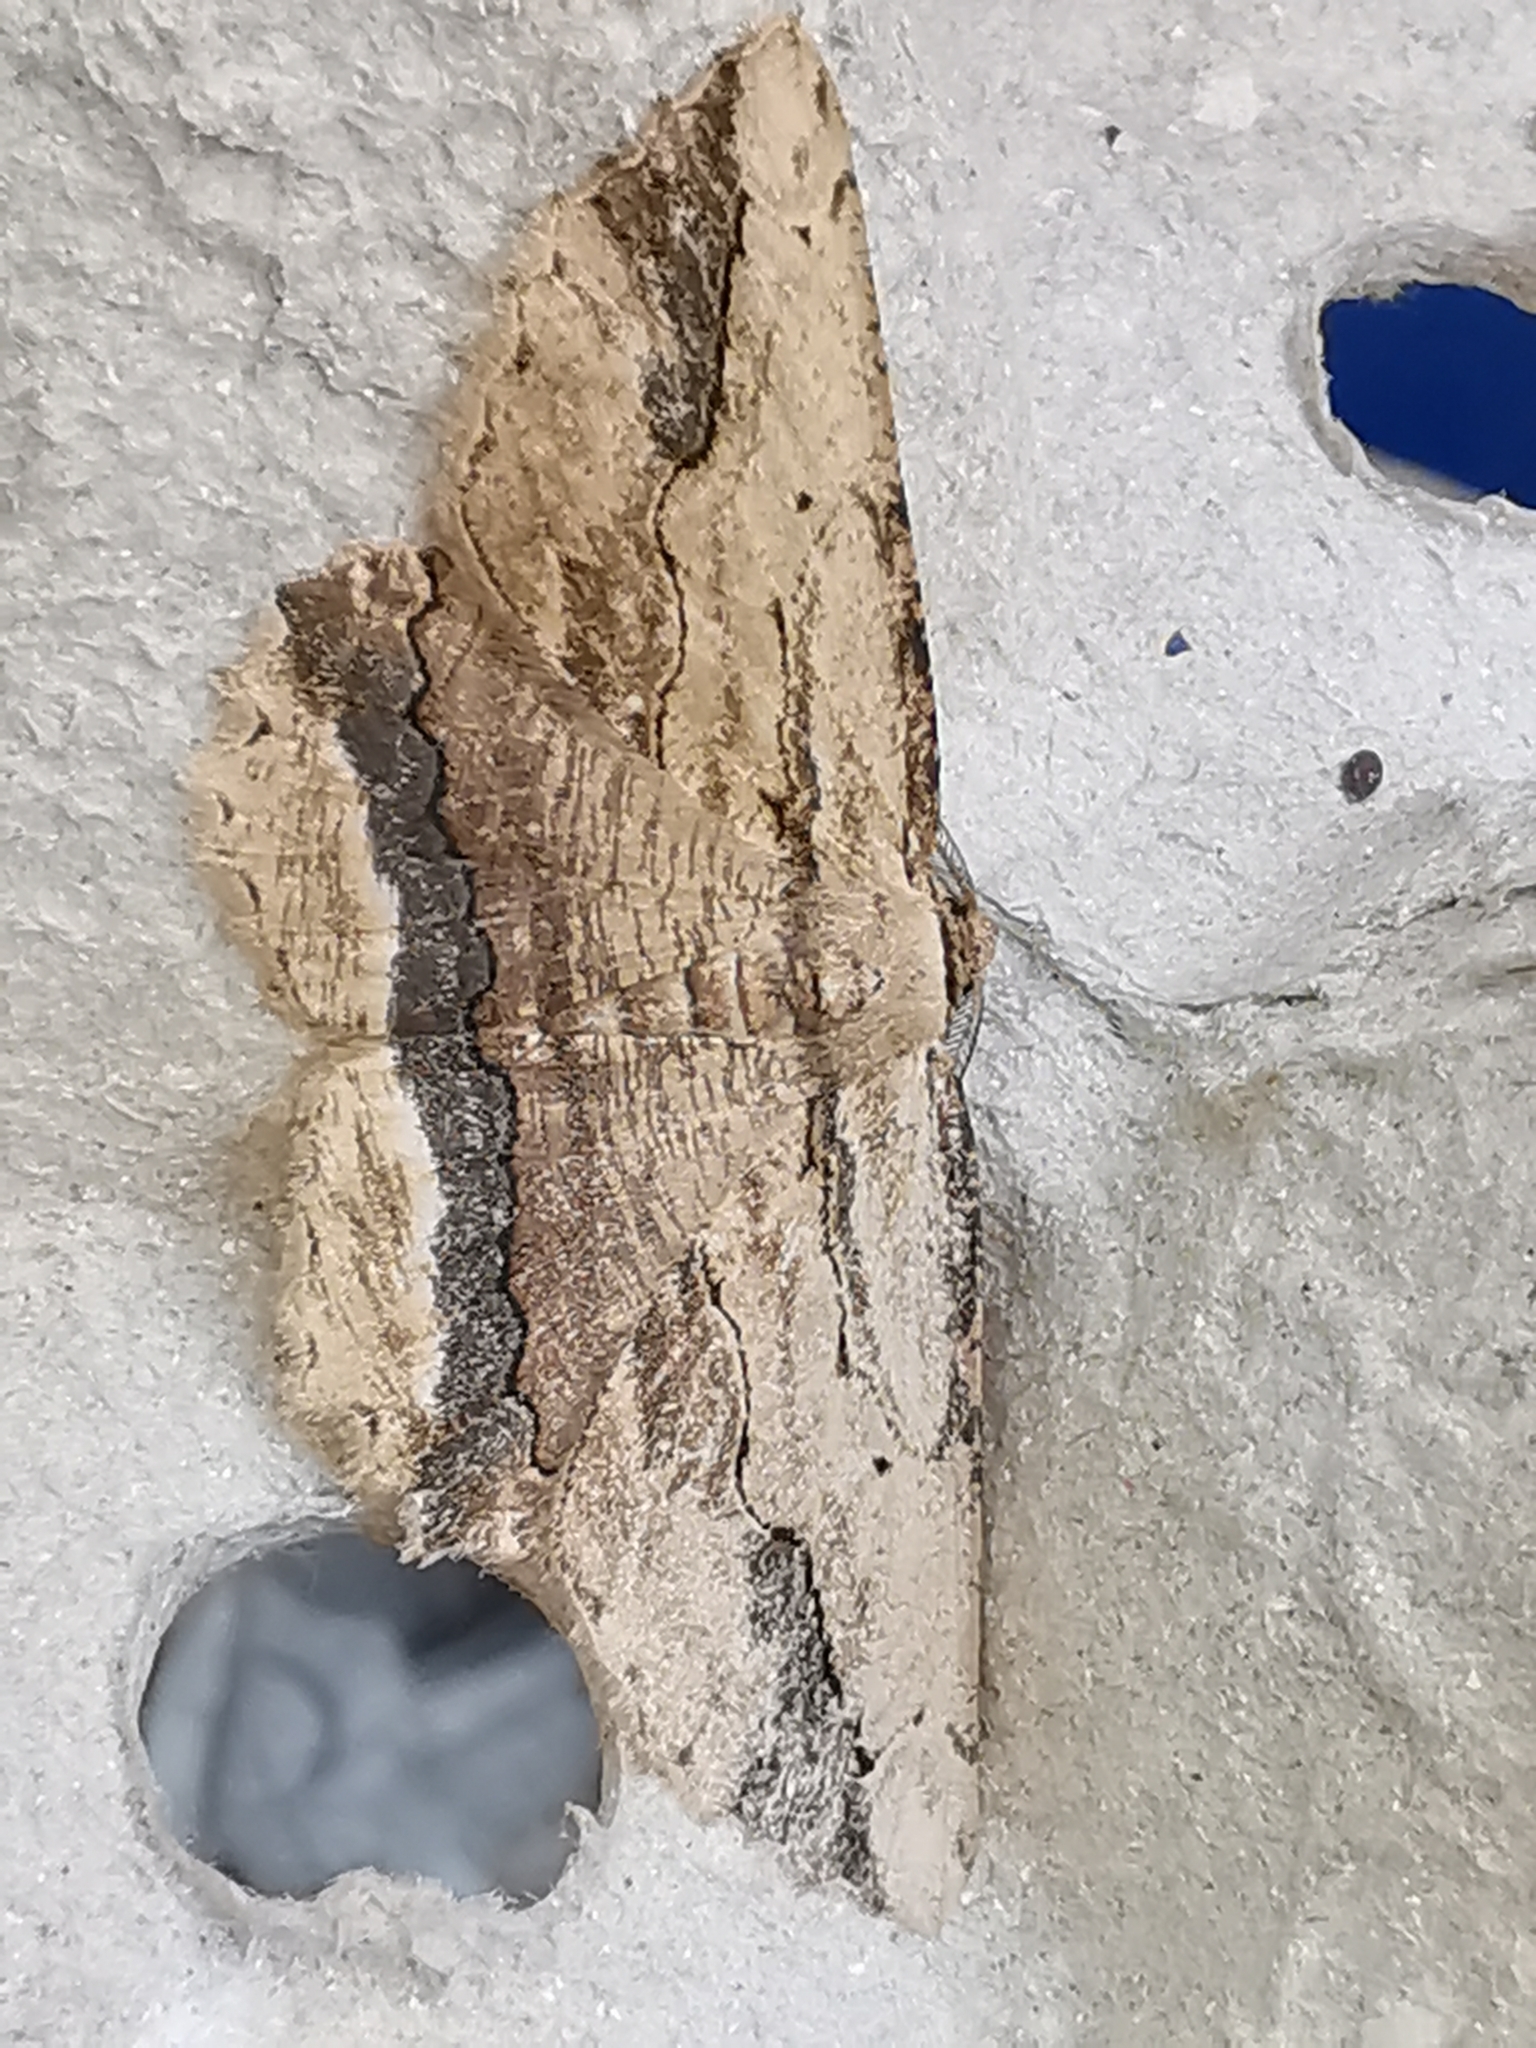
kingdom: Animalia
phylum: Arthropoda
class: Insecta
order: Lepidoptera
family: Geometridae
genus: Menophra
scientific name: Menophra abruptaria
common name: Waved umber
